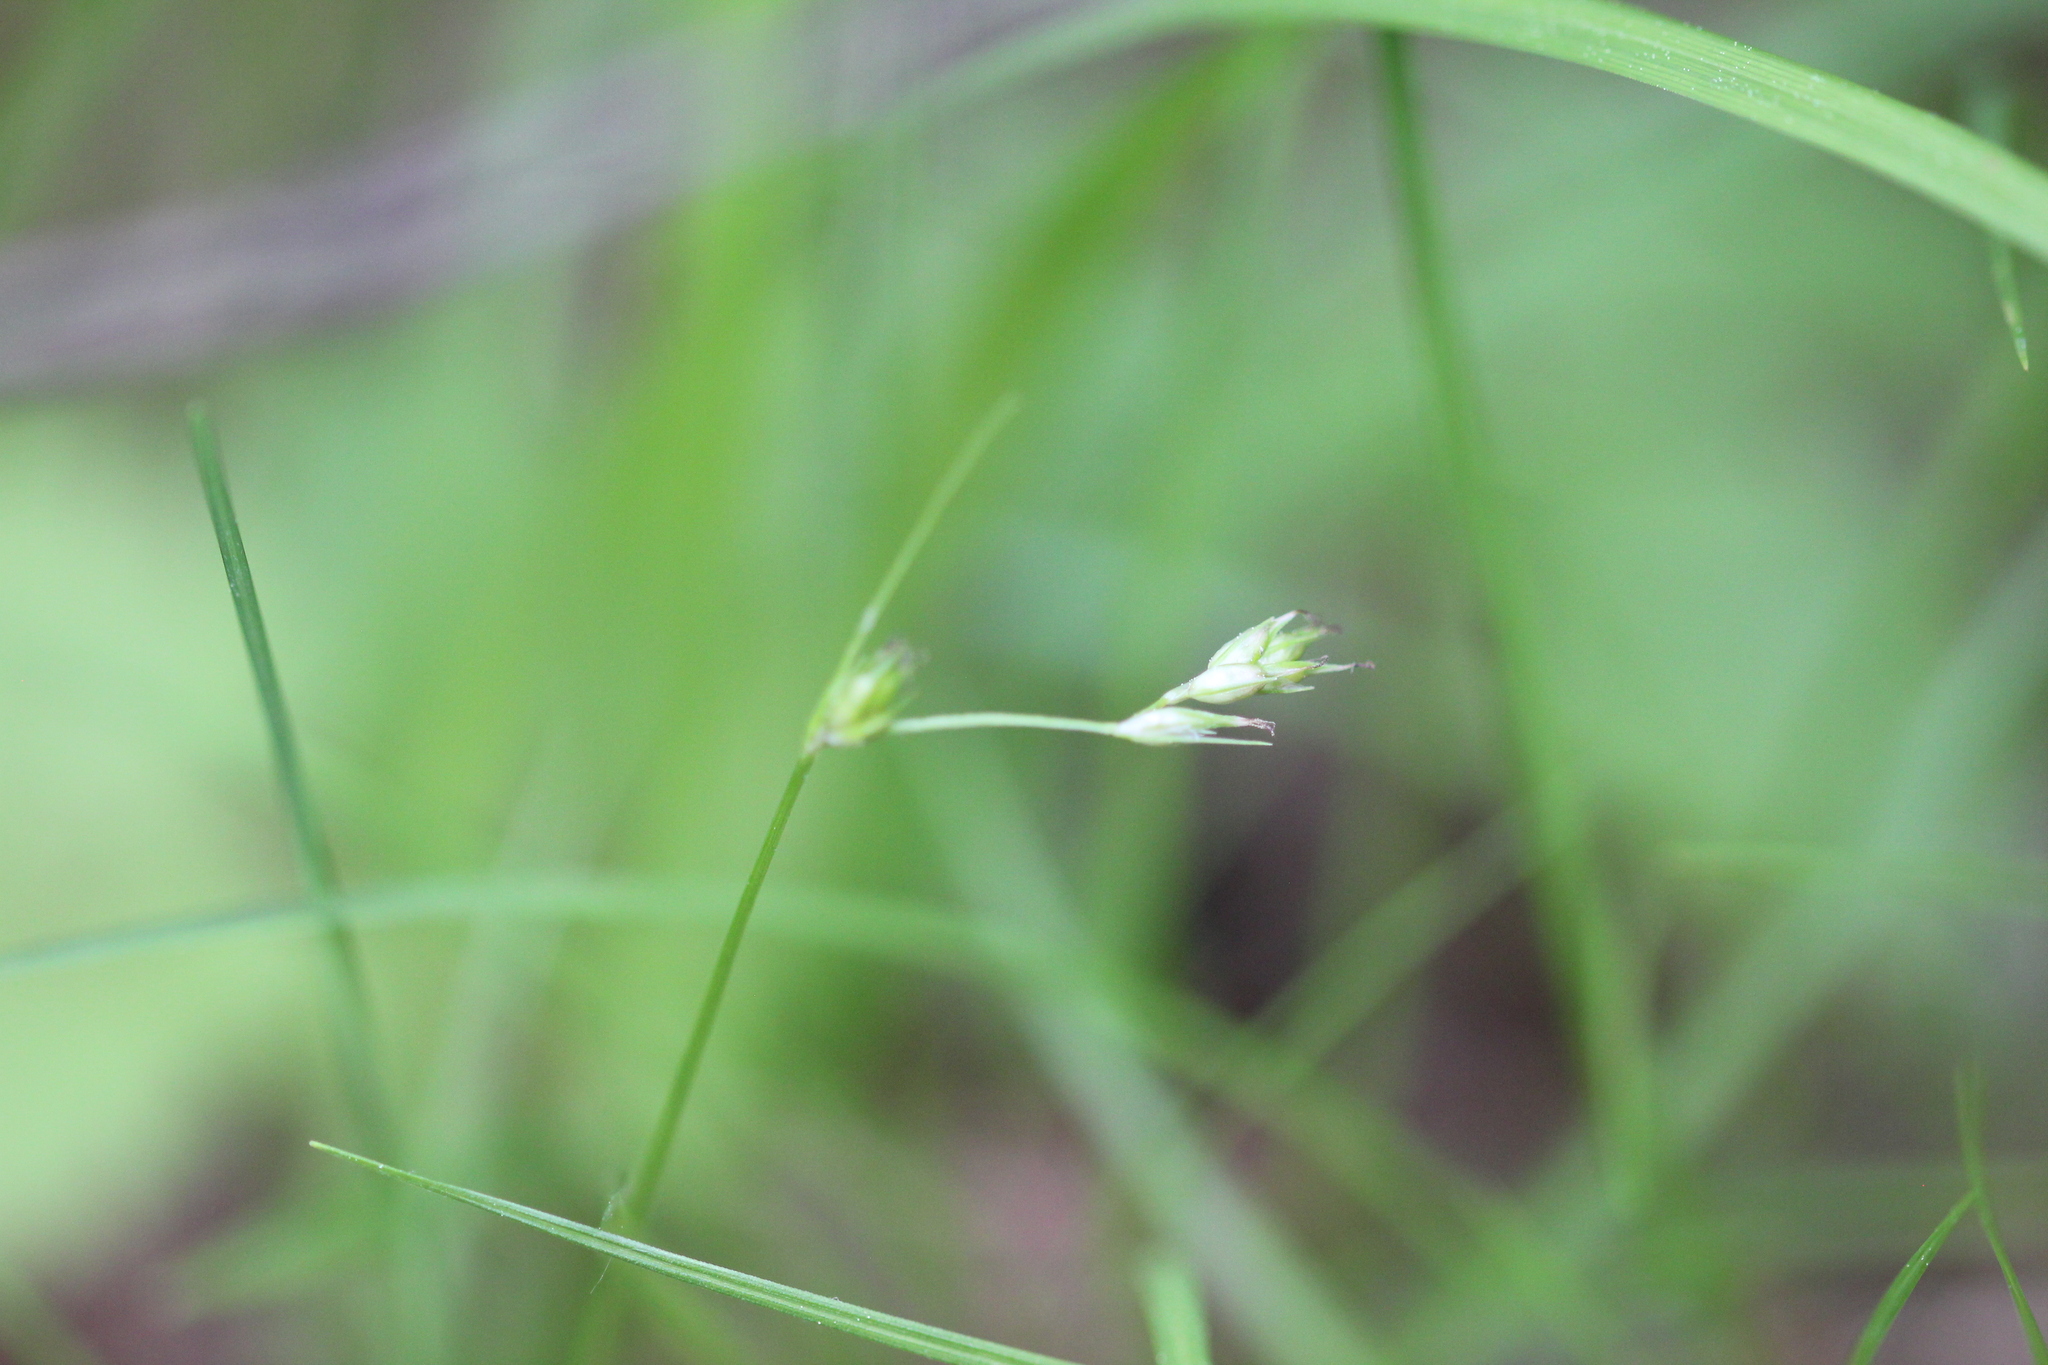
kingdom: Plantae
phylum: Tracheophyta
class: Liliopsida
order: Poales
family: Cyperaceae
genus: Carex
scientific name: Carex deweyana
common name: Dewey's sedge
